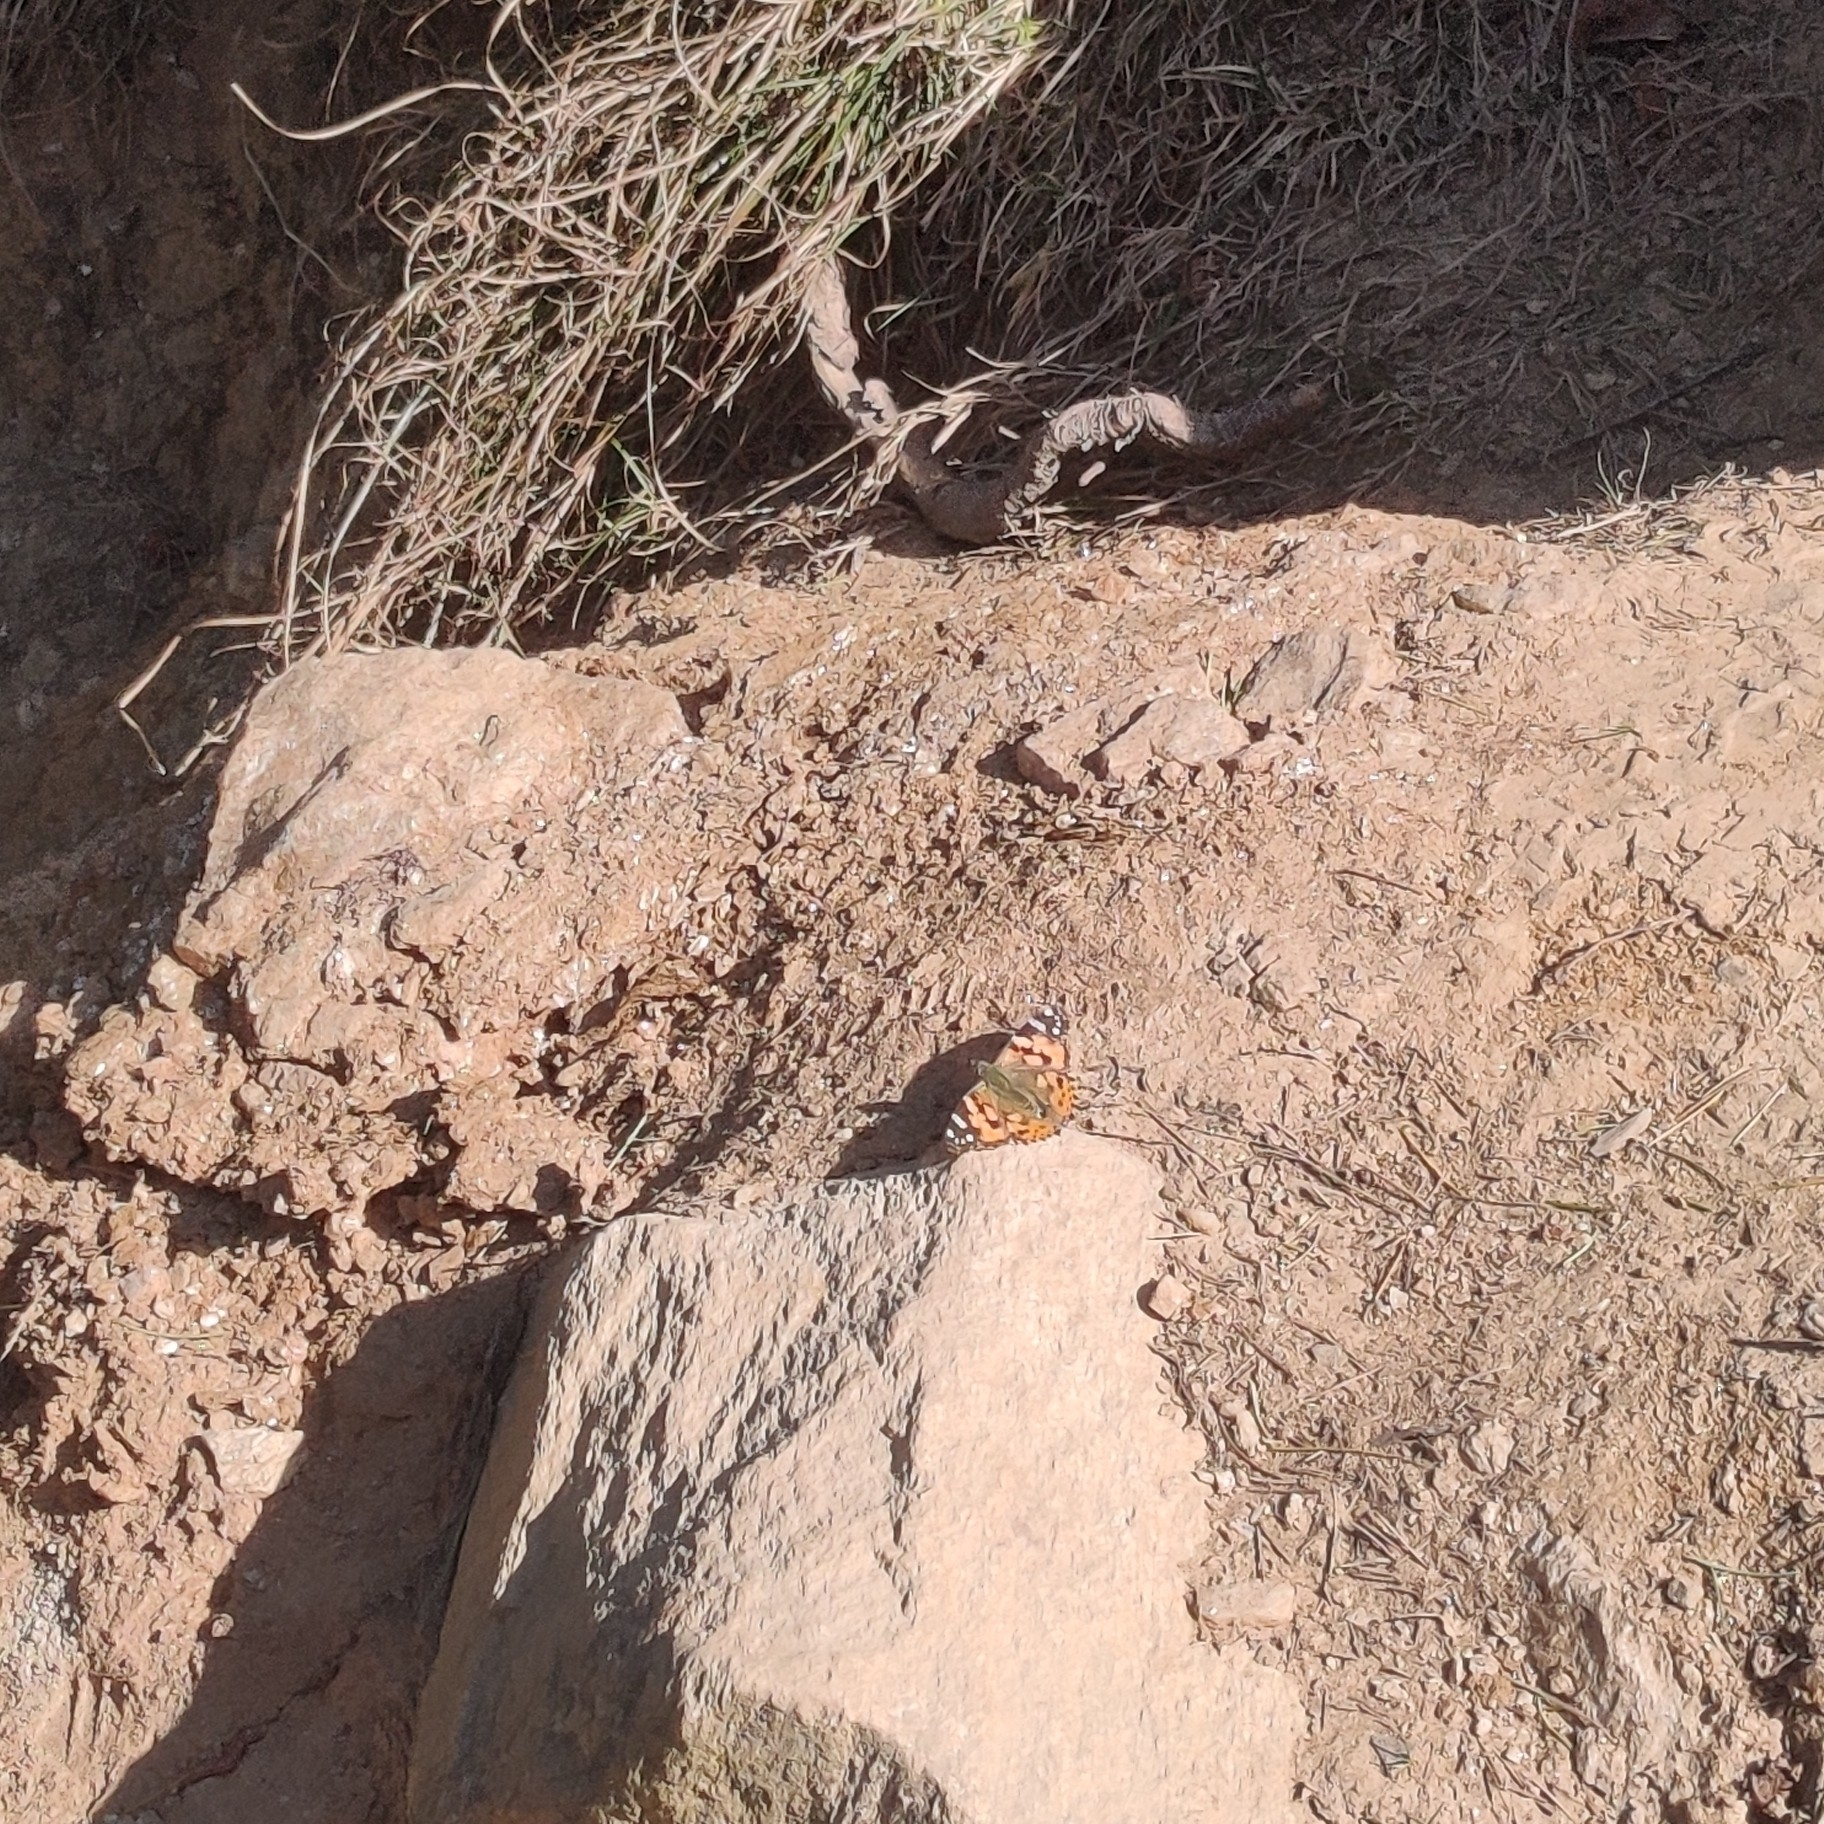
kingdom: Animalia
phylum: Arthropoda
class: Insecta
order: Lepidoptera
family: Nymphalidae
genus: Vanessa
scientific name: Vanessa cardui
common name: Painted lady
